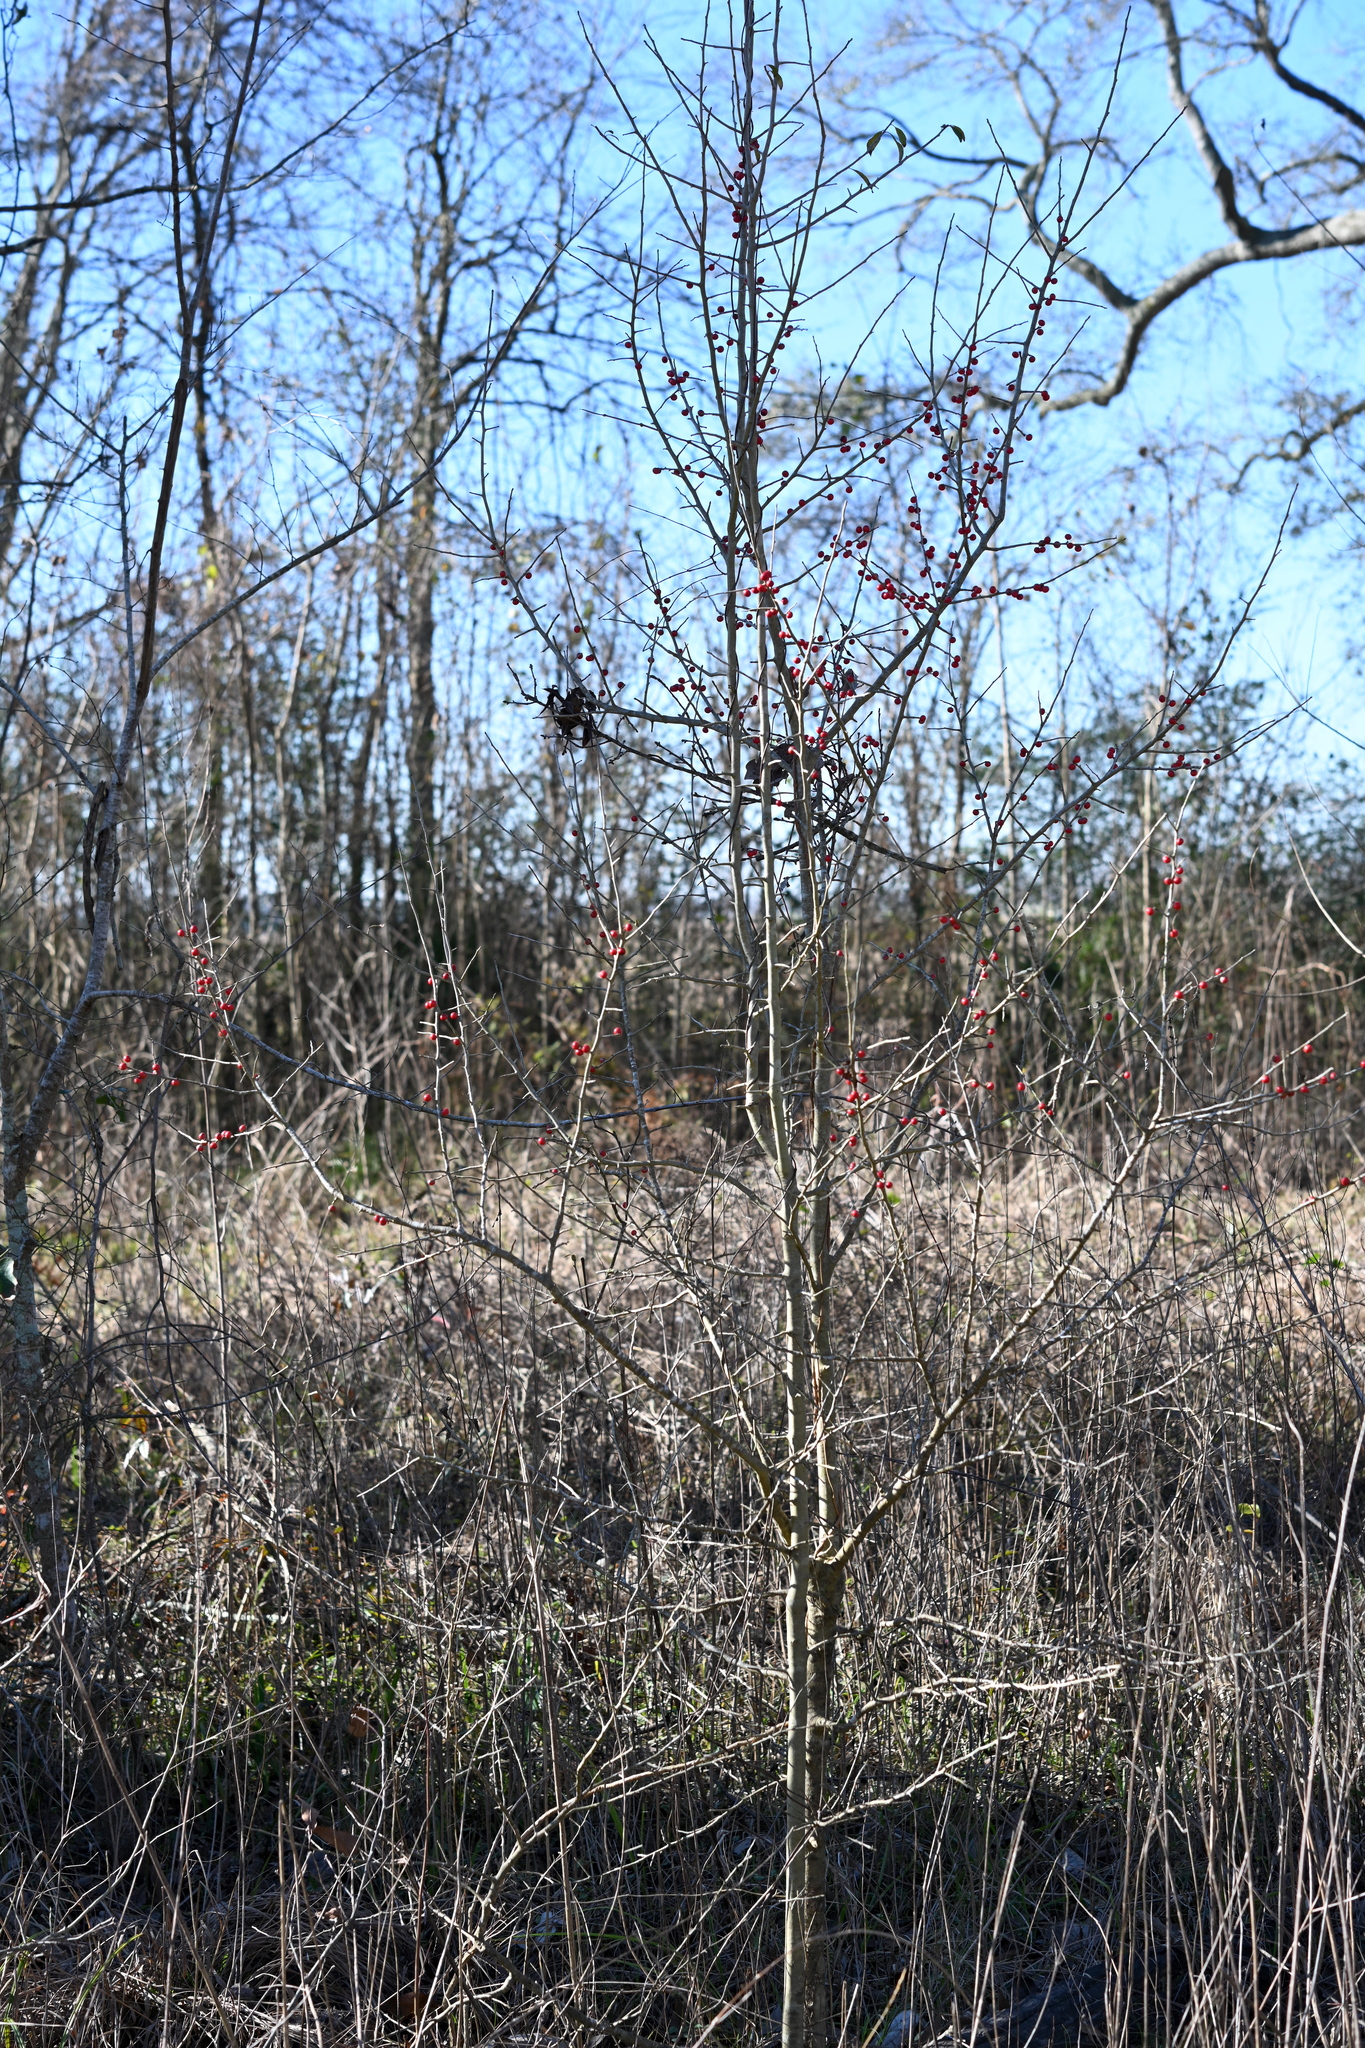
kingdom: Plantae
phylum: Tracheophyta
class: Magnoliopsida
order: Aquifoliales
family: Aquifoliaceae
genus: Ilex
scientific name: Ilex decidua
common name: Possum-haw
